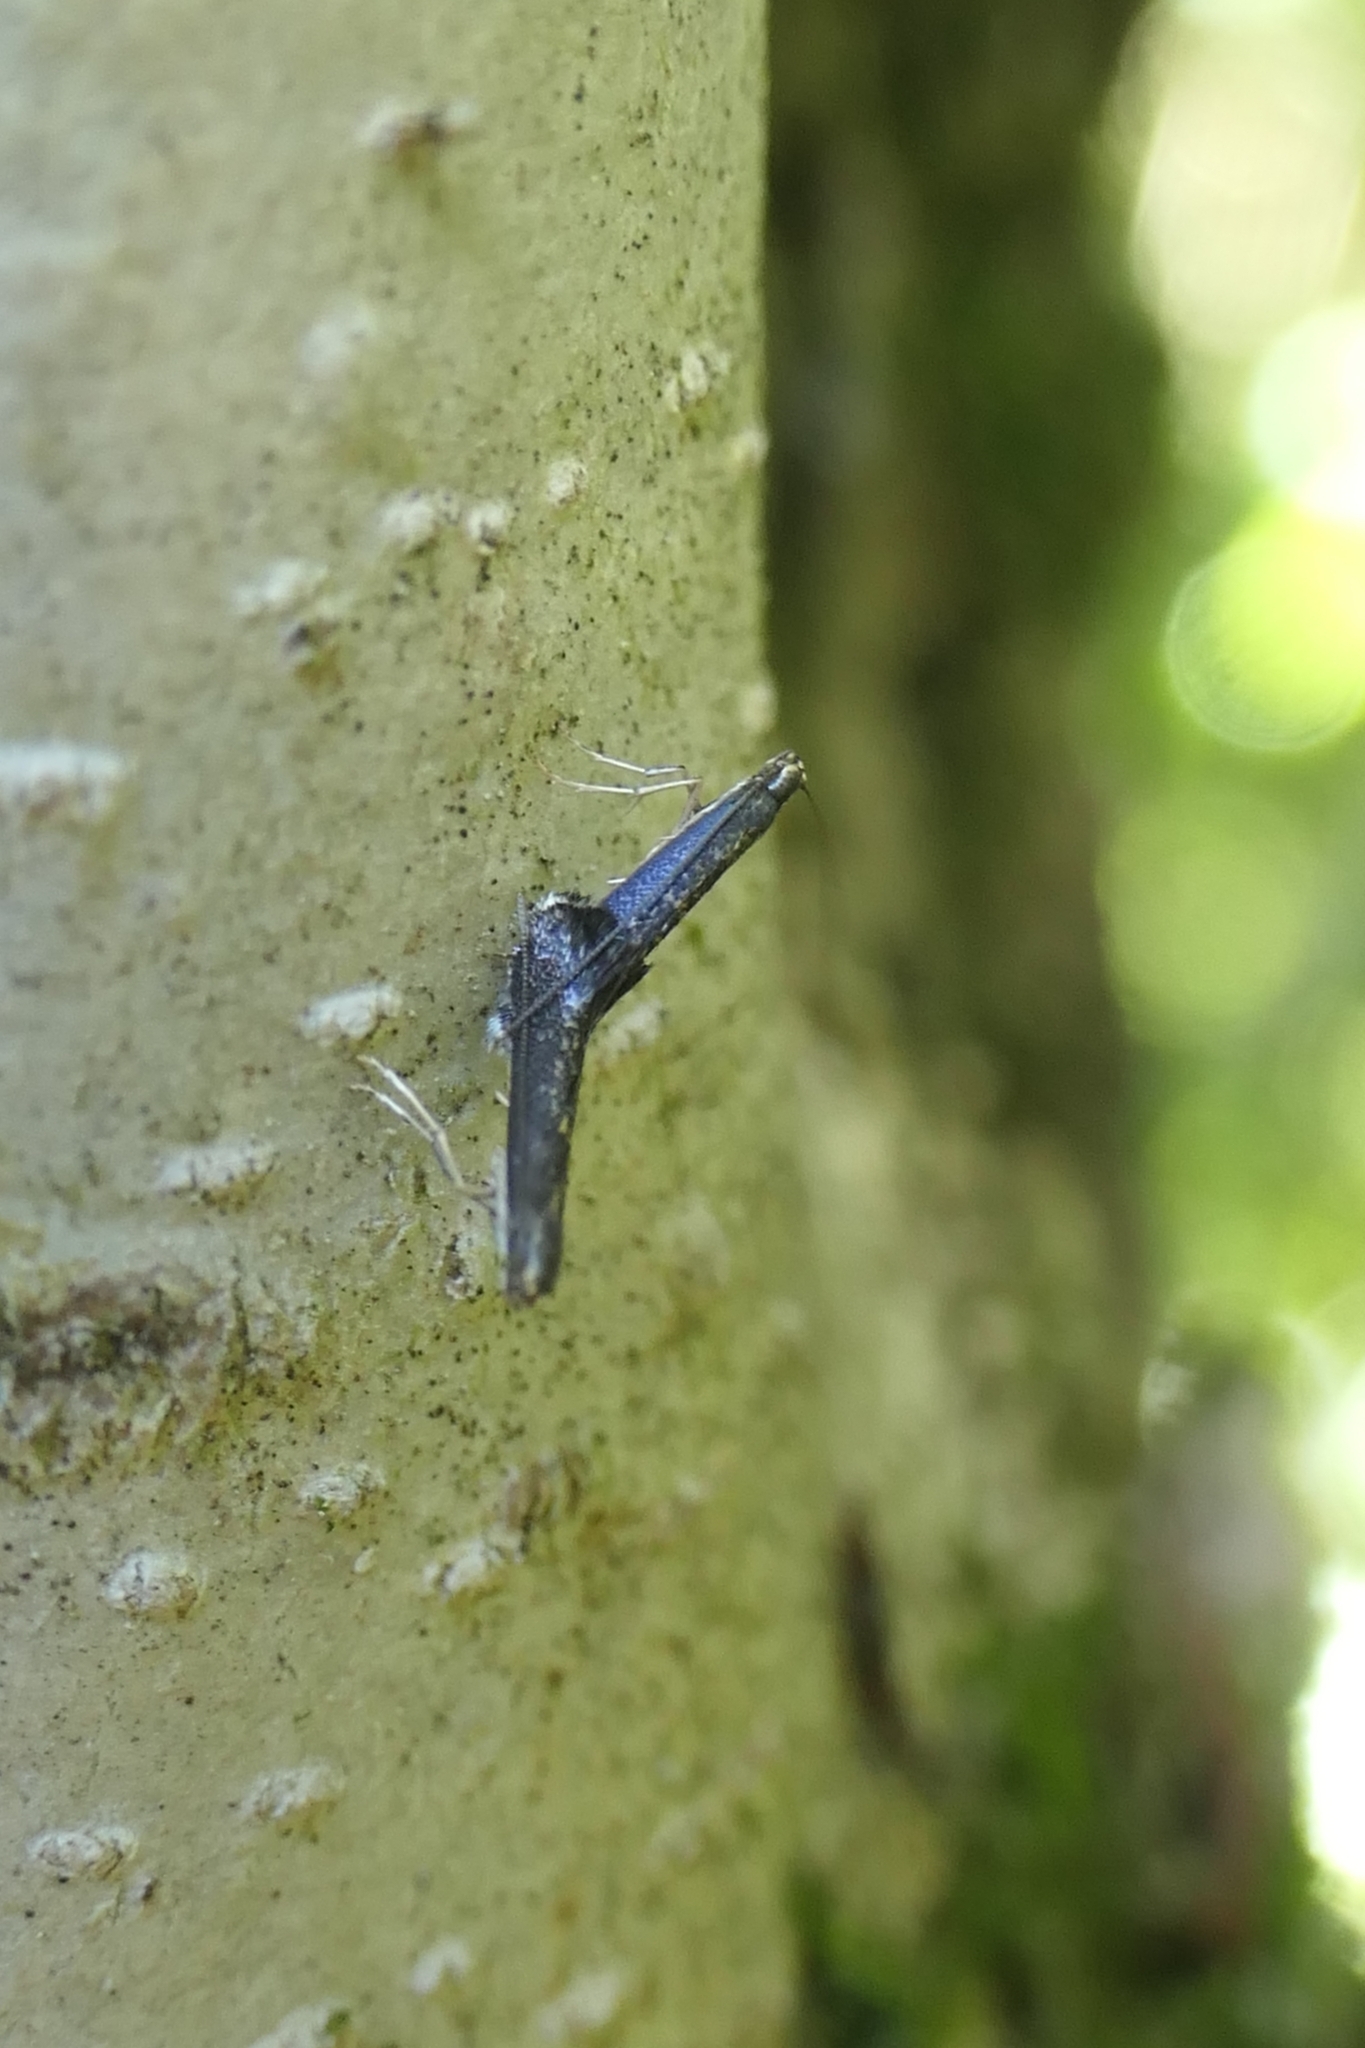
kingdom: Animalia
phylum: Arthropoda
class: Insecta
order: Lepidoptera
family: Gracillariidae
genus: Eumetriochroa
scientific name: Eumetriochroa aethalota
